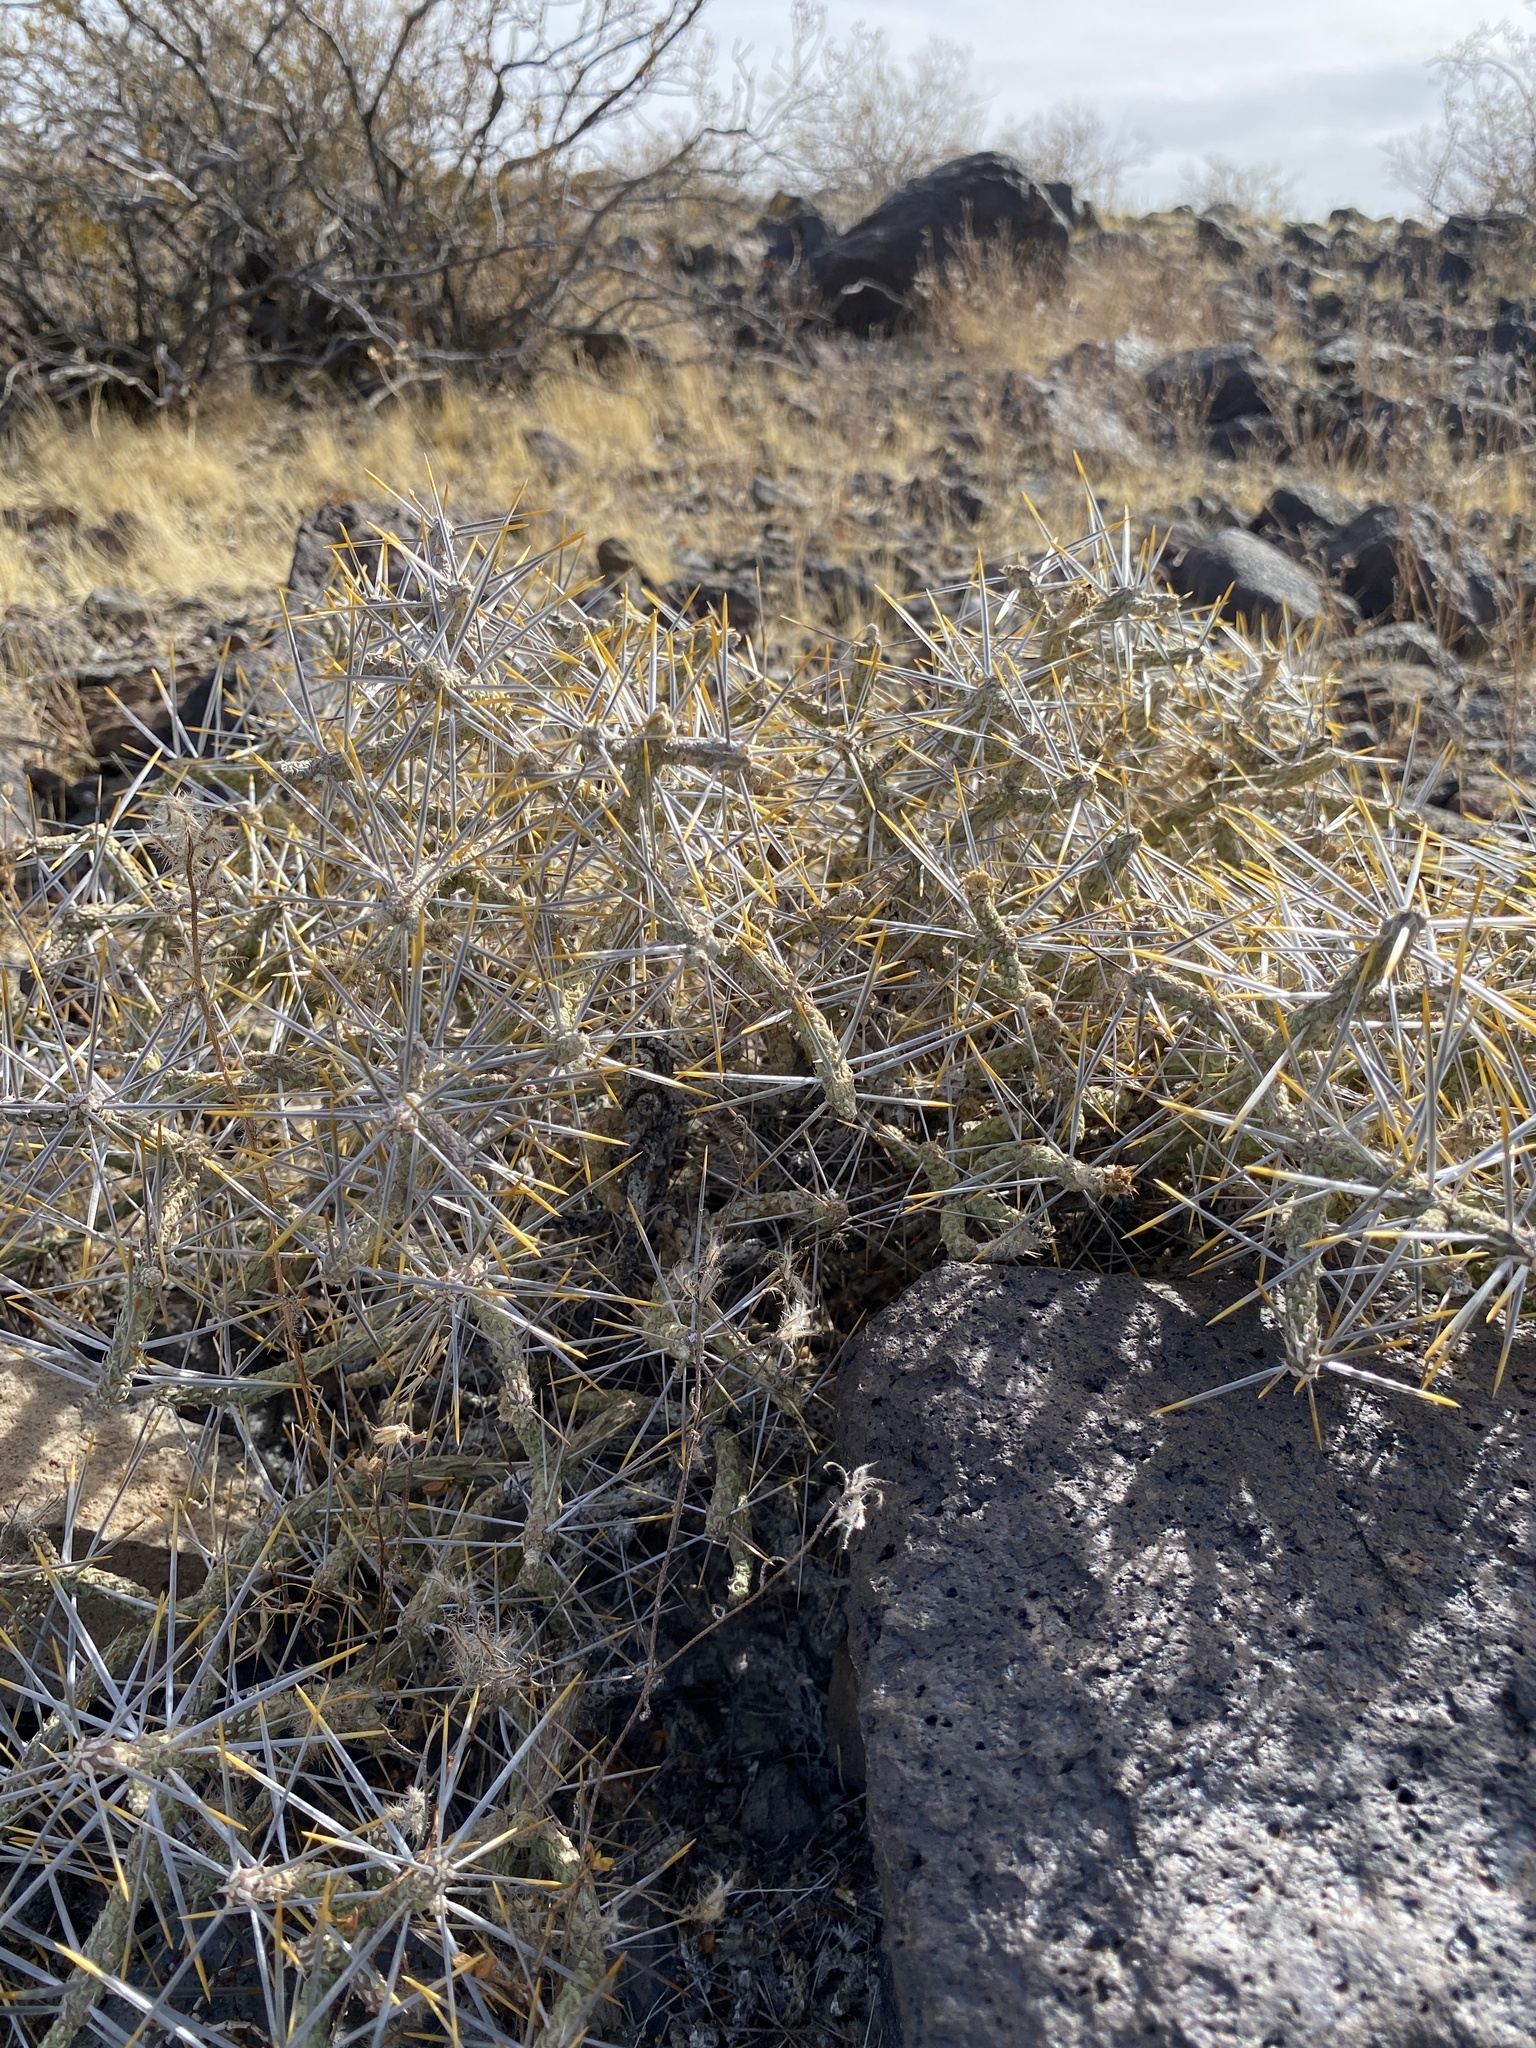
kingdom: Plantae
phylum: Tracheophyta
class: Magnoliopsida
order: Caryophyllales
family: Cactaceae
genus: Cylindropuntia
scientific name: Cylindropuntia ramosissima
